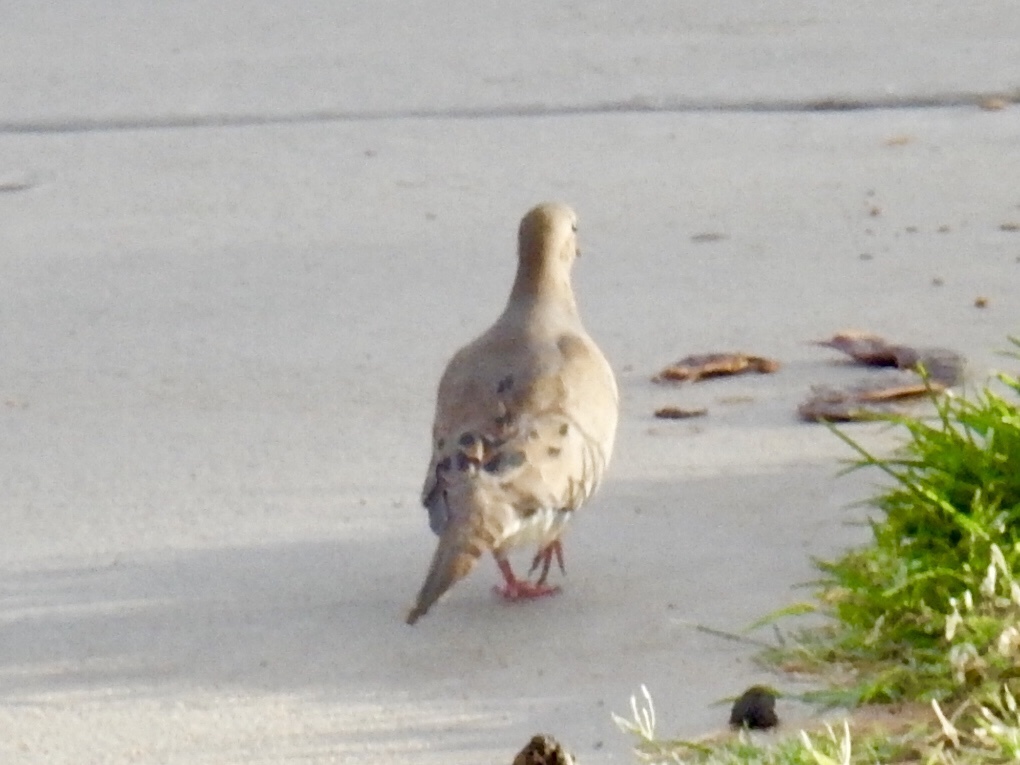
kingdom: Animalia
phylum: Chordata
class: Aves
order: Columbiformes
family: Columbidae
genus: Zenaida
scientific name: Zenaida macroura
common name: Mourning dove
